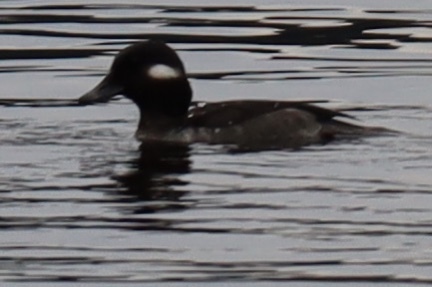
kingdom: Animalia
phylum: Chordata
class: Aves
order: Anseriformes
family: Anatidae
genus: Bucephala
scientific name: Bucephala albeola
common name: Bufflehead
